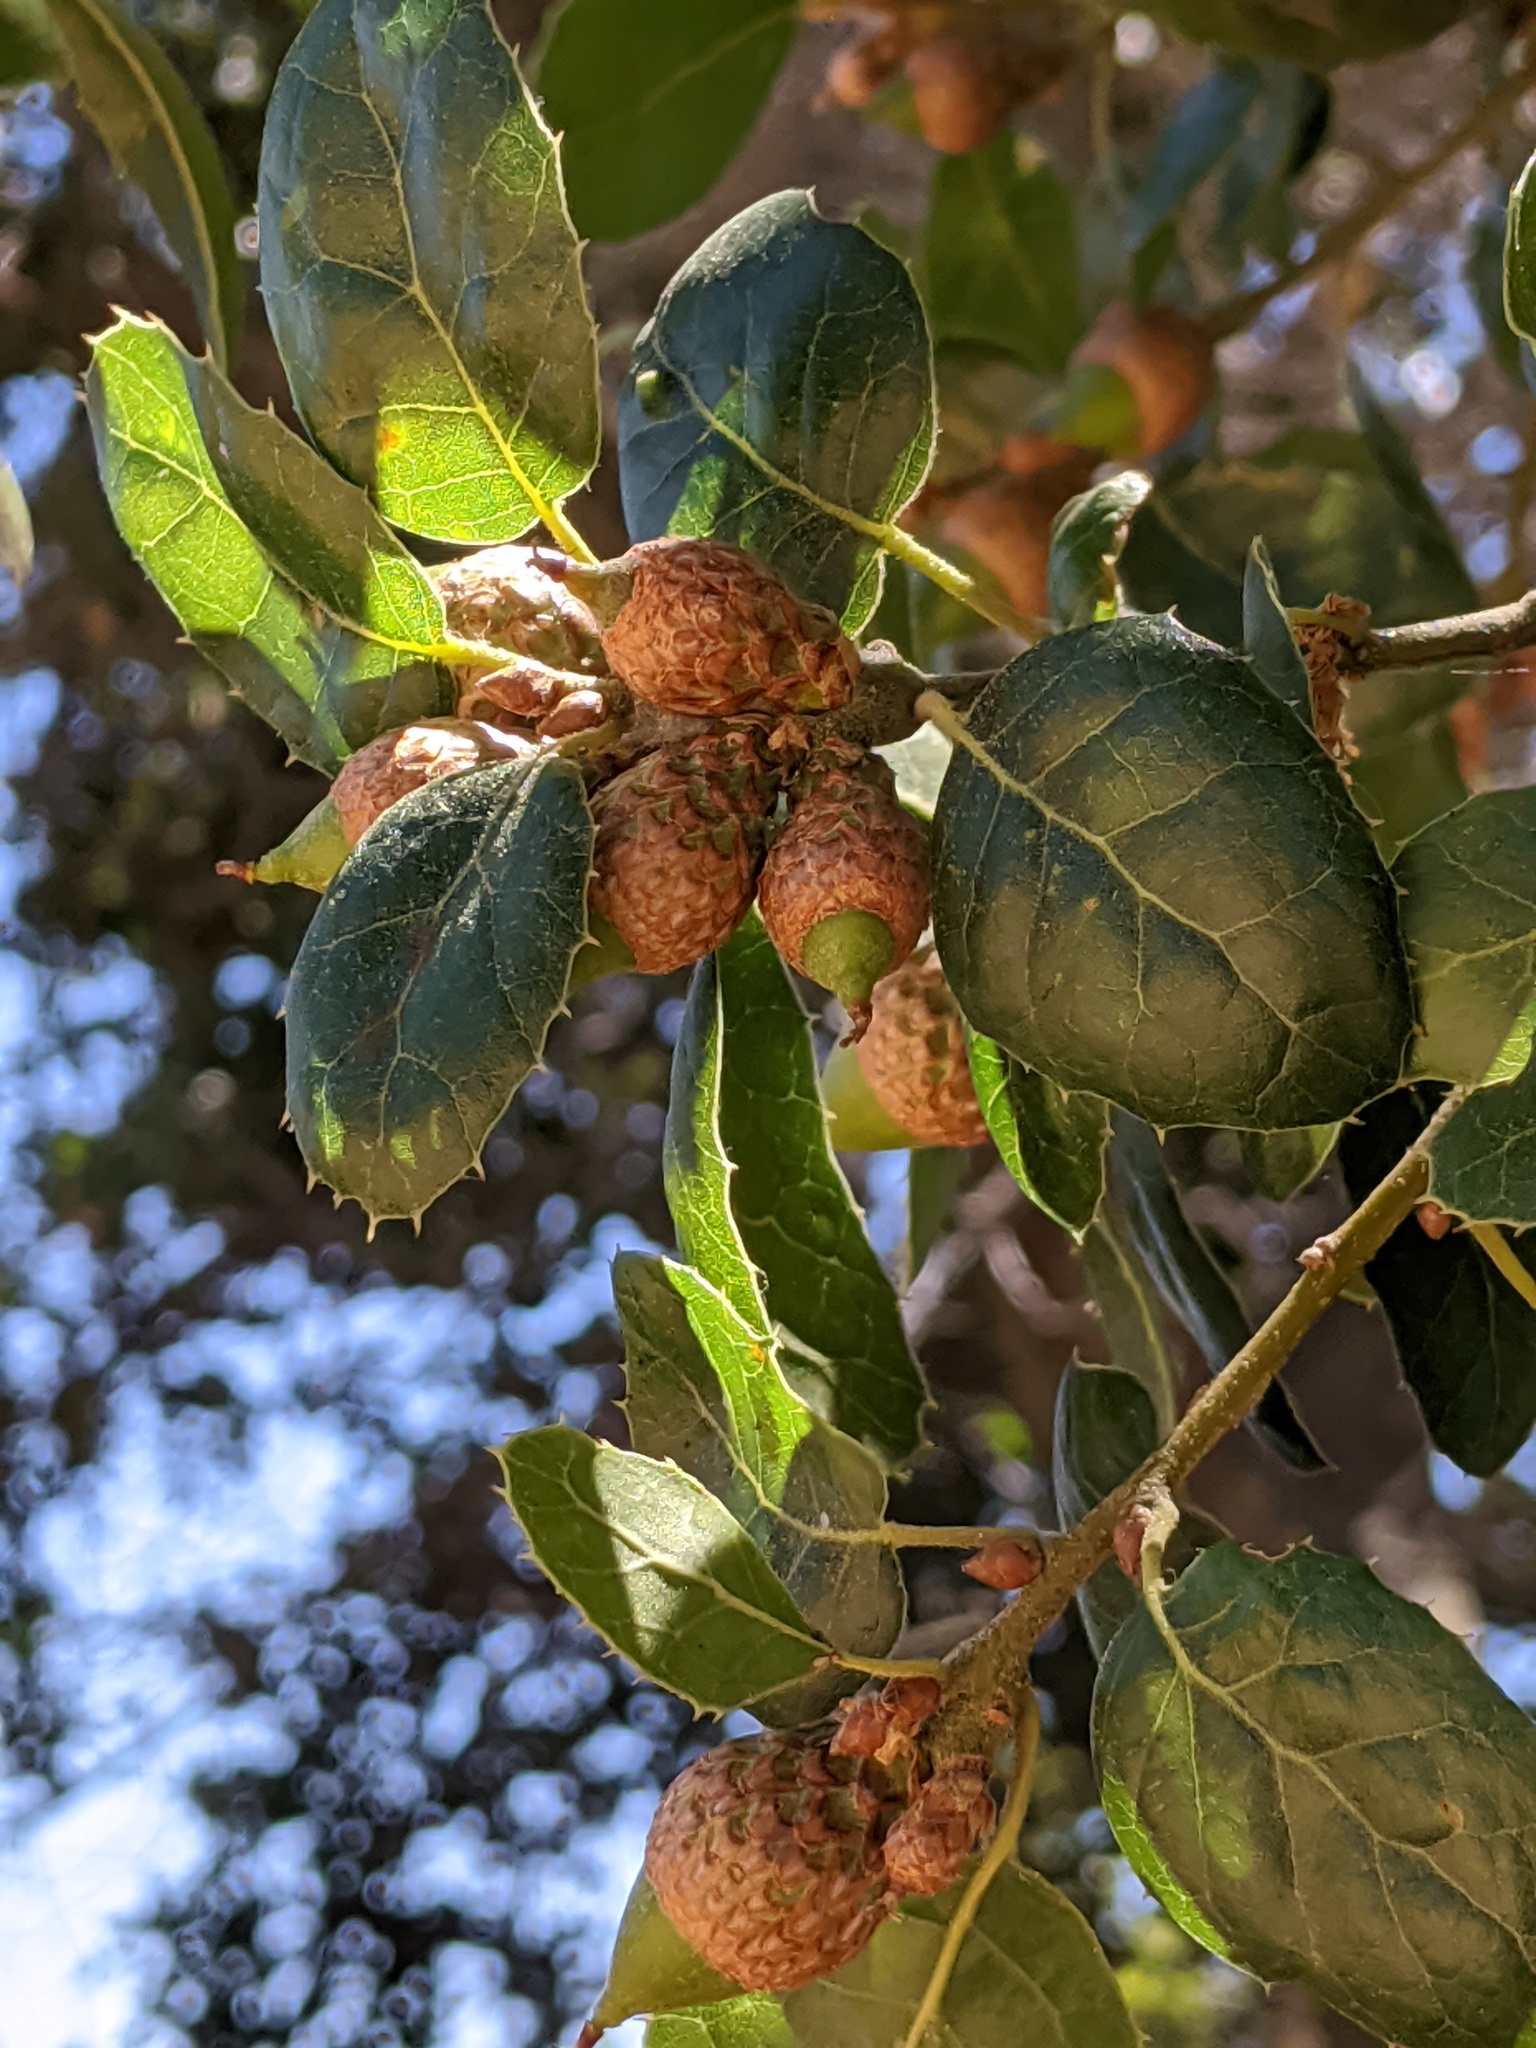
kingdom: Plantae
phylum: Tracheophyta
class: Magnoliopsida
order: Fagales
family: Fagaceae
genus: Quercus
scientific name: Quercus agrifolia
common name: California live oak
